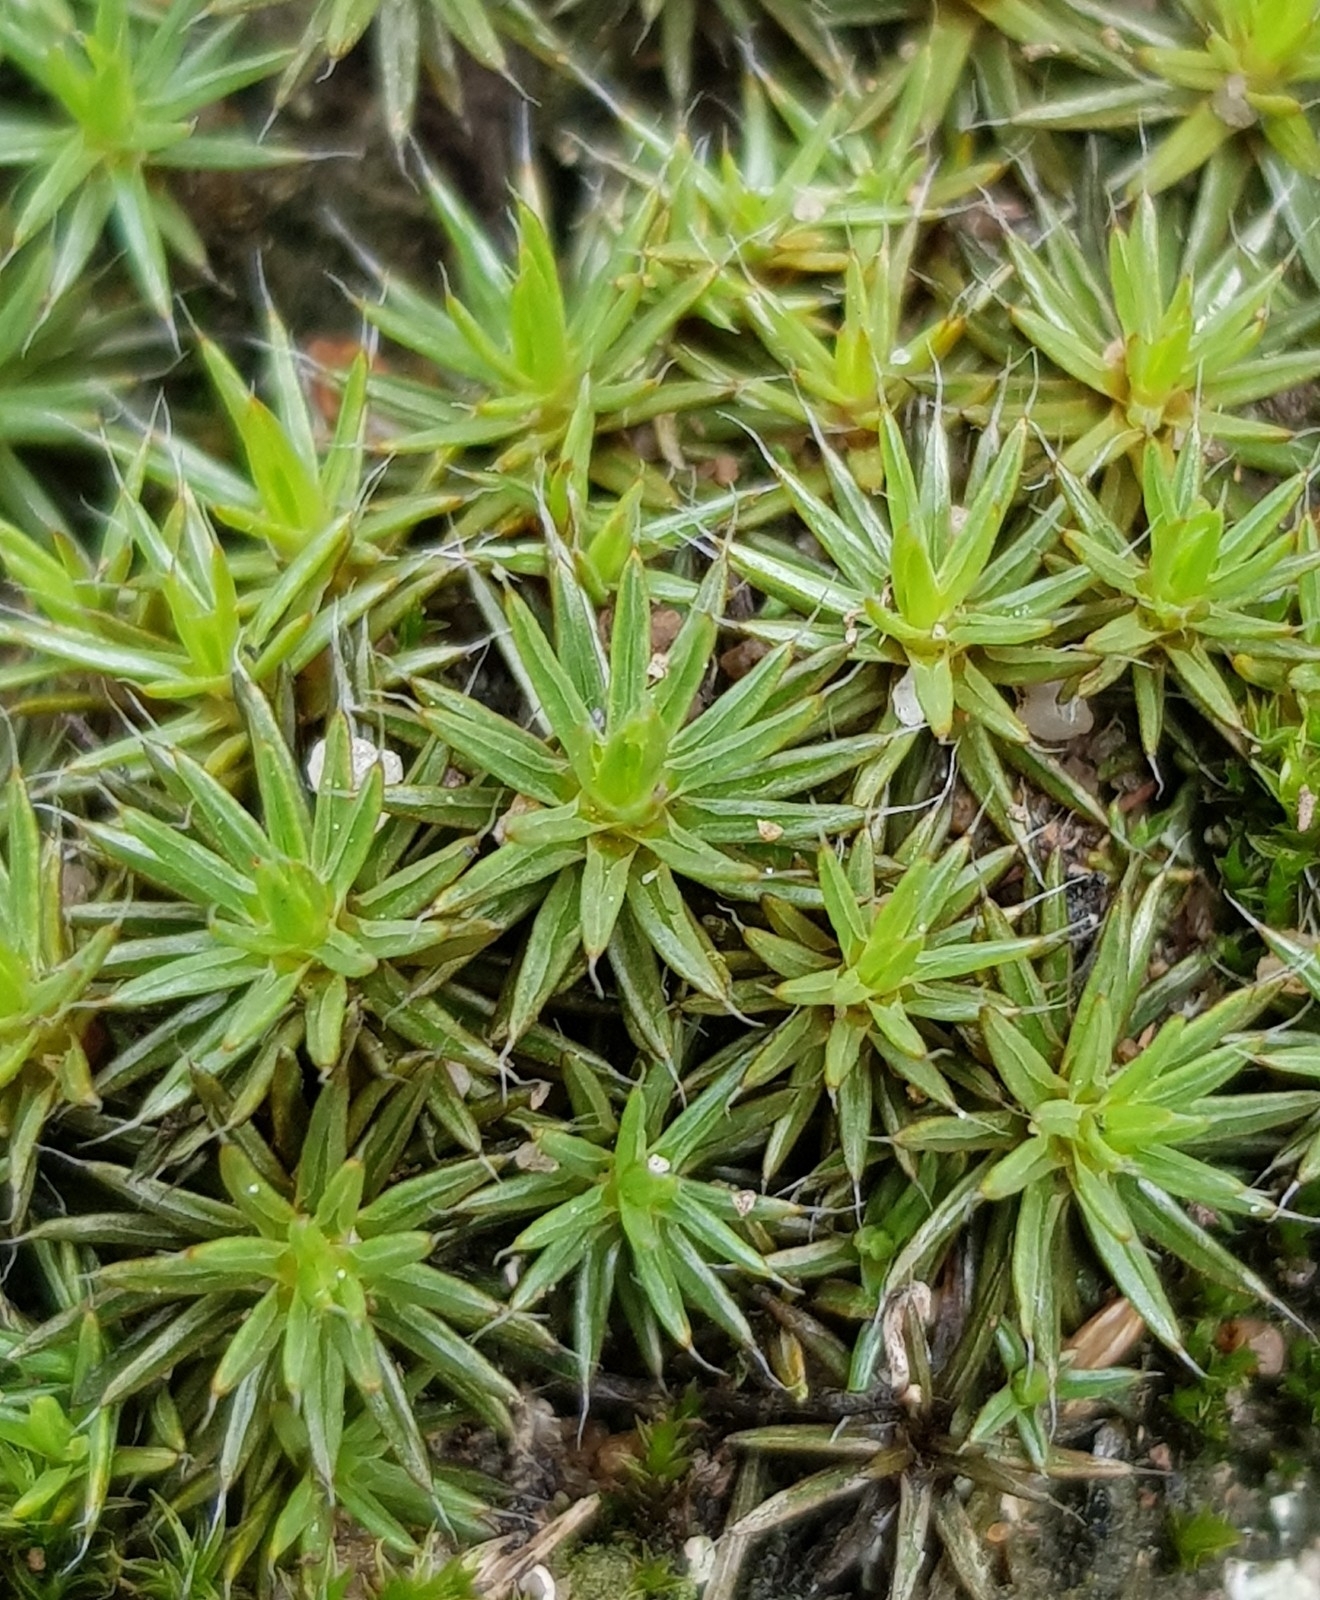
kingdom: Plantae
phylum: Bryophyta
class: Polytrichopsida
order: Polytrichales
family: Polytrichaceae
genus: Polytrichum
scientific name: Polytrichum piliferum
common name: Bristly haircap
